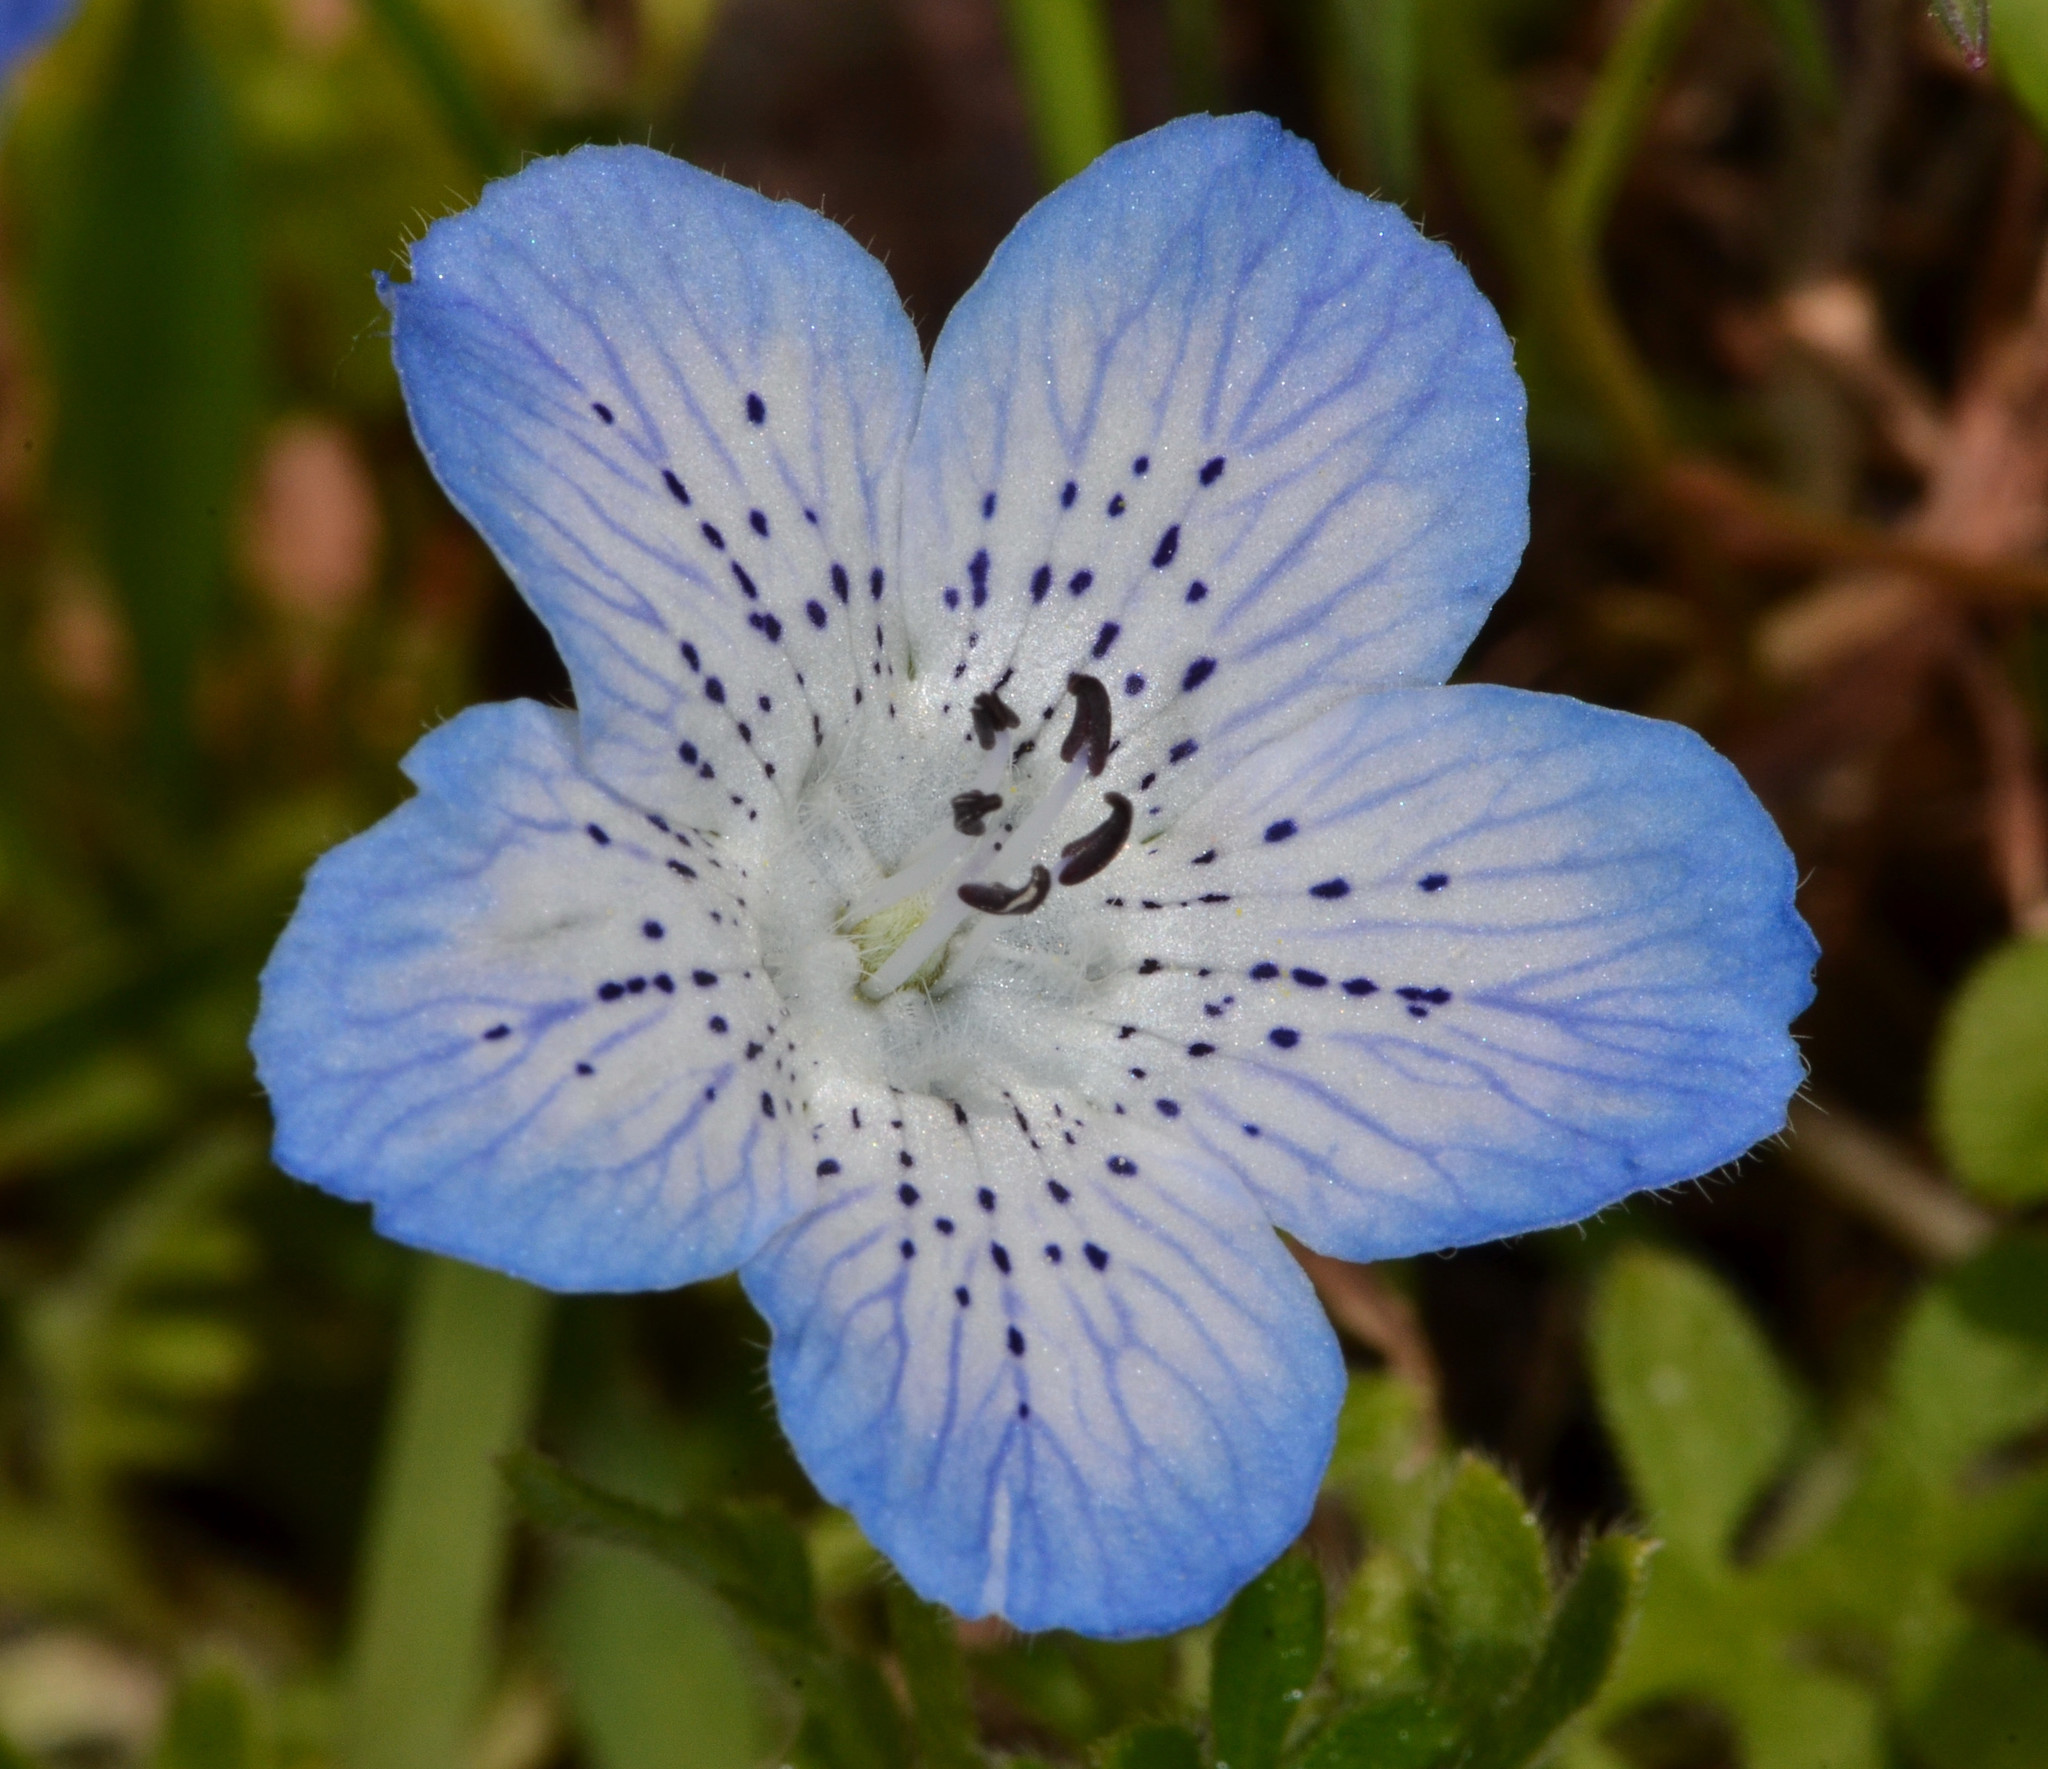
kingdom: Plantae
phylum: Tracheophyta
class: Magnoliopsida
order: Boraginales
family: Hydrophyllaceae
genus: Nemophila
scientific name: Nemophila menziesii
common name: Baby's-blue-eyes
